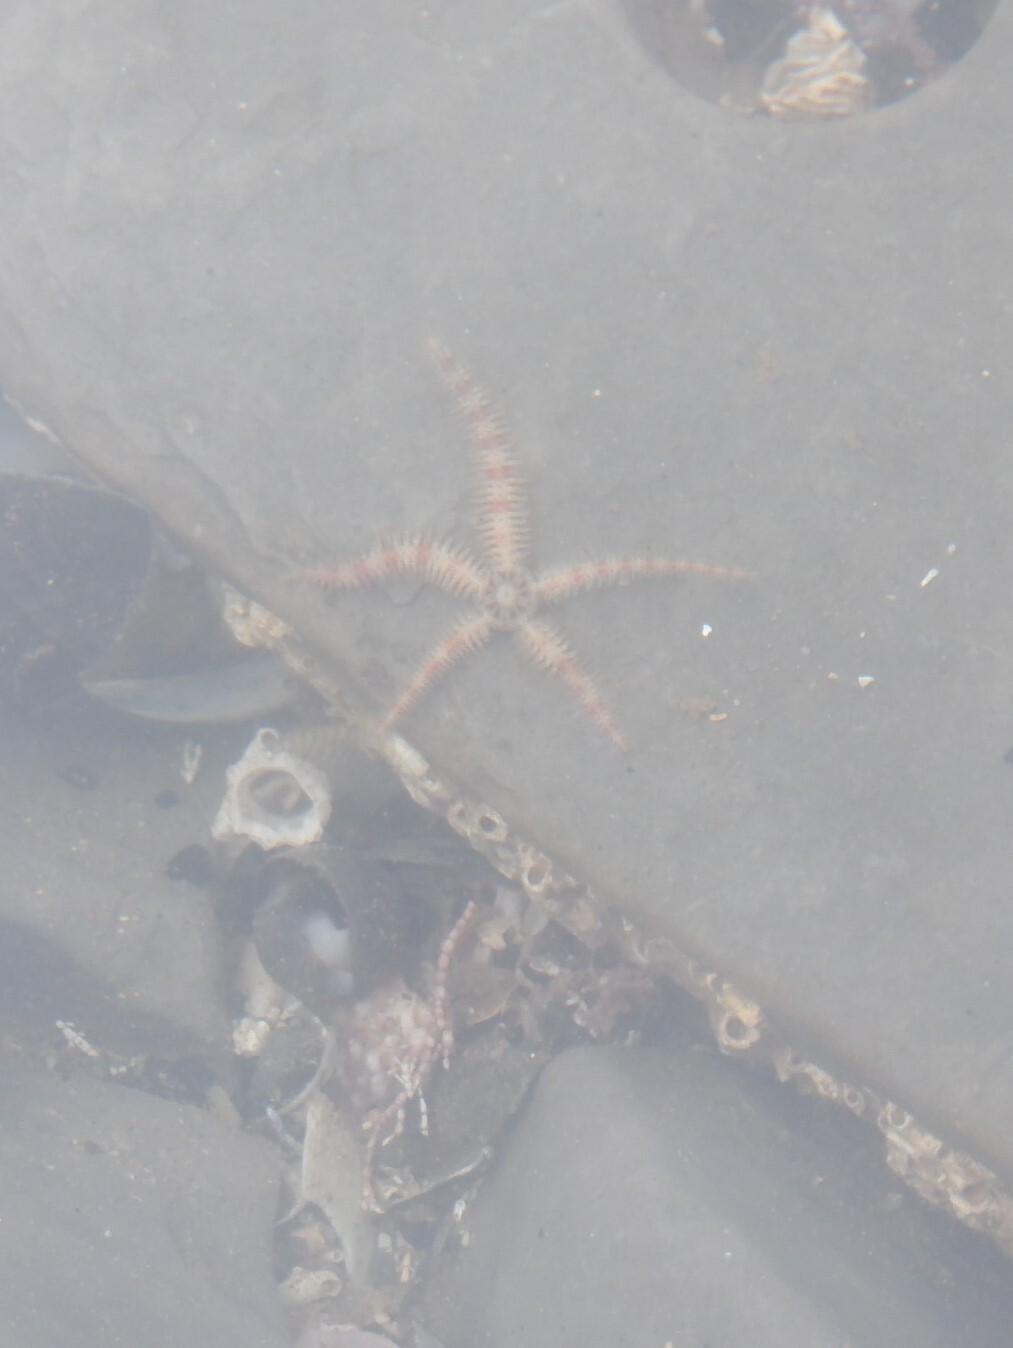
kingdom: Animalia
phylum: Echinodermata
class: Ophiuroidea
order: Amphilepidida
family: Ophiotrichidae
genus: Ophiothrix
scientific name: Ophiothrix fragilis
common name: Common brittlestar
